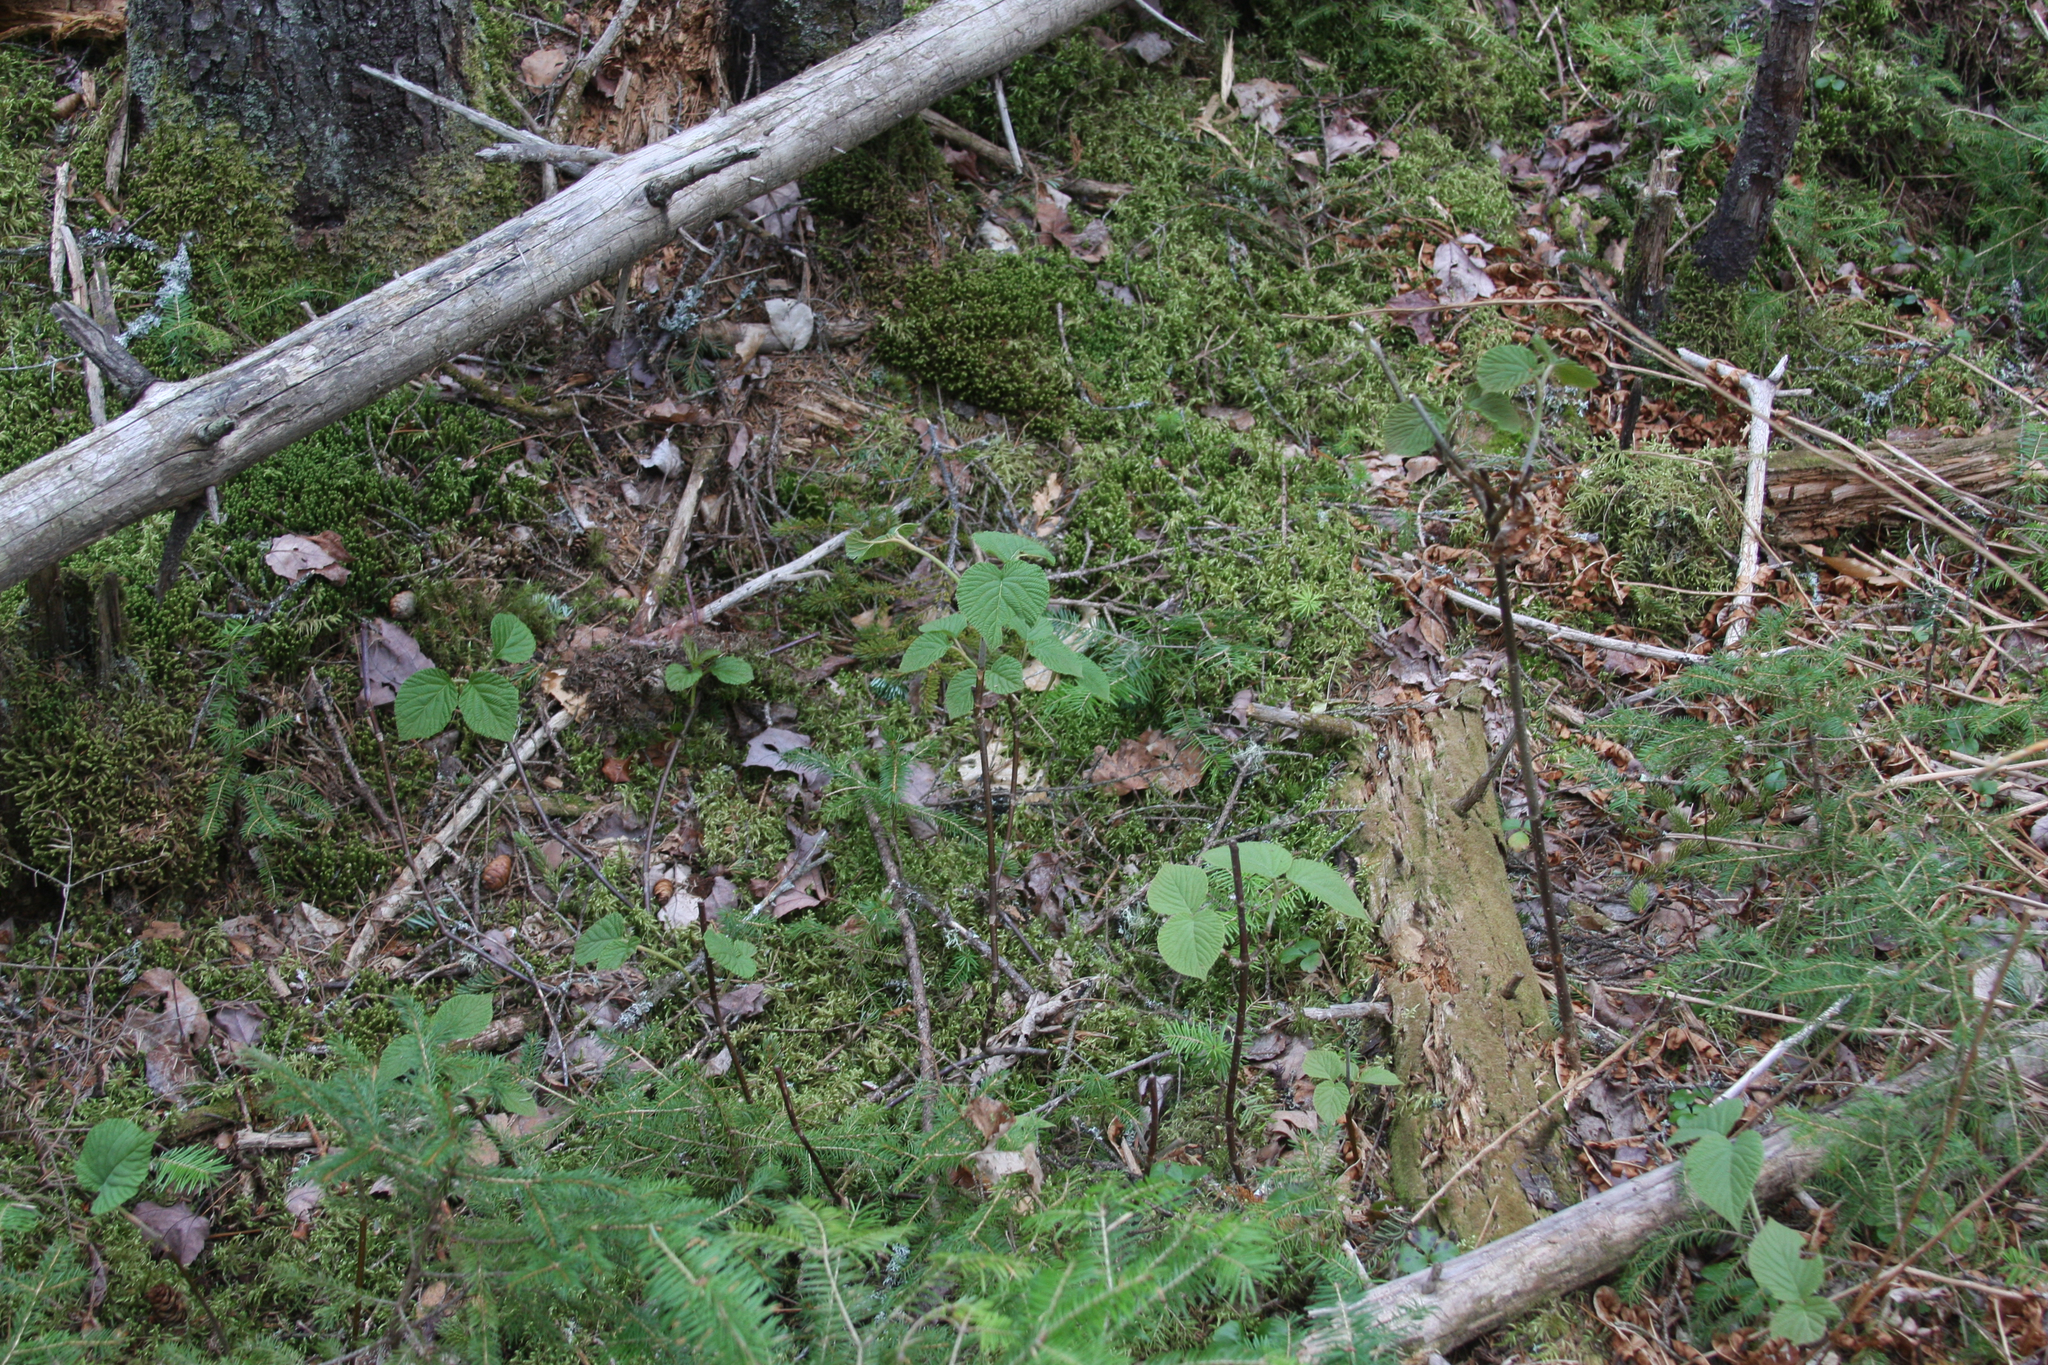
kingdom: Plantae
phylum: Tracheophyta
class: Magnoliopsida
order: Dipsacales
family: Viburnaceae
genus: Viburnum
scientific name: Viburnum lantanoides
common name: Hobblebush
